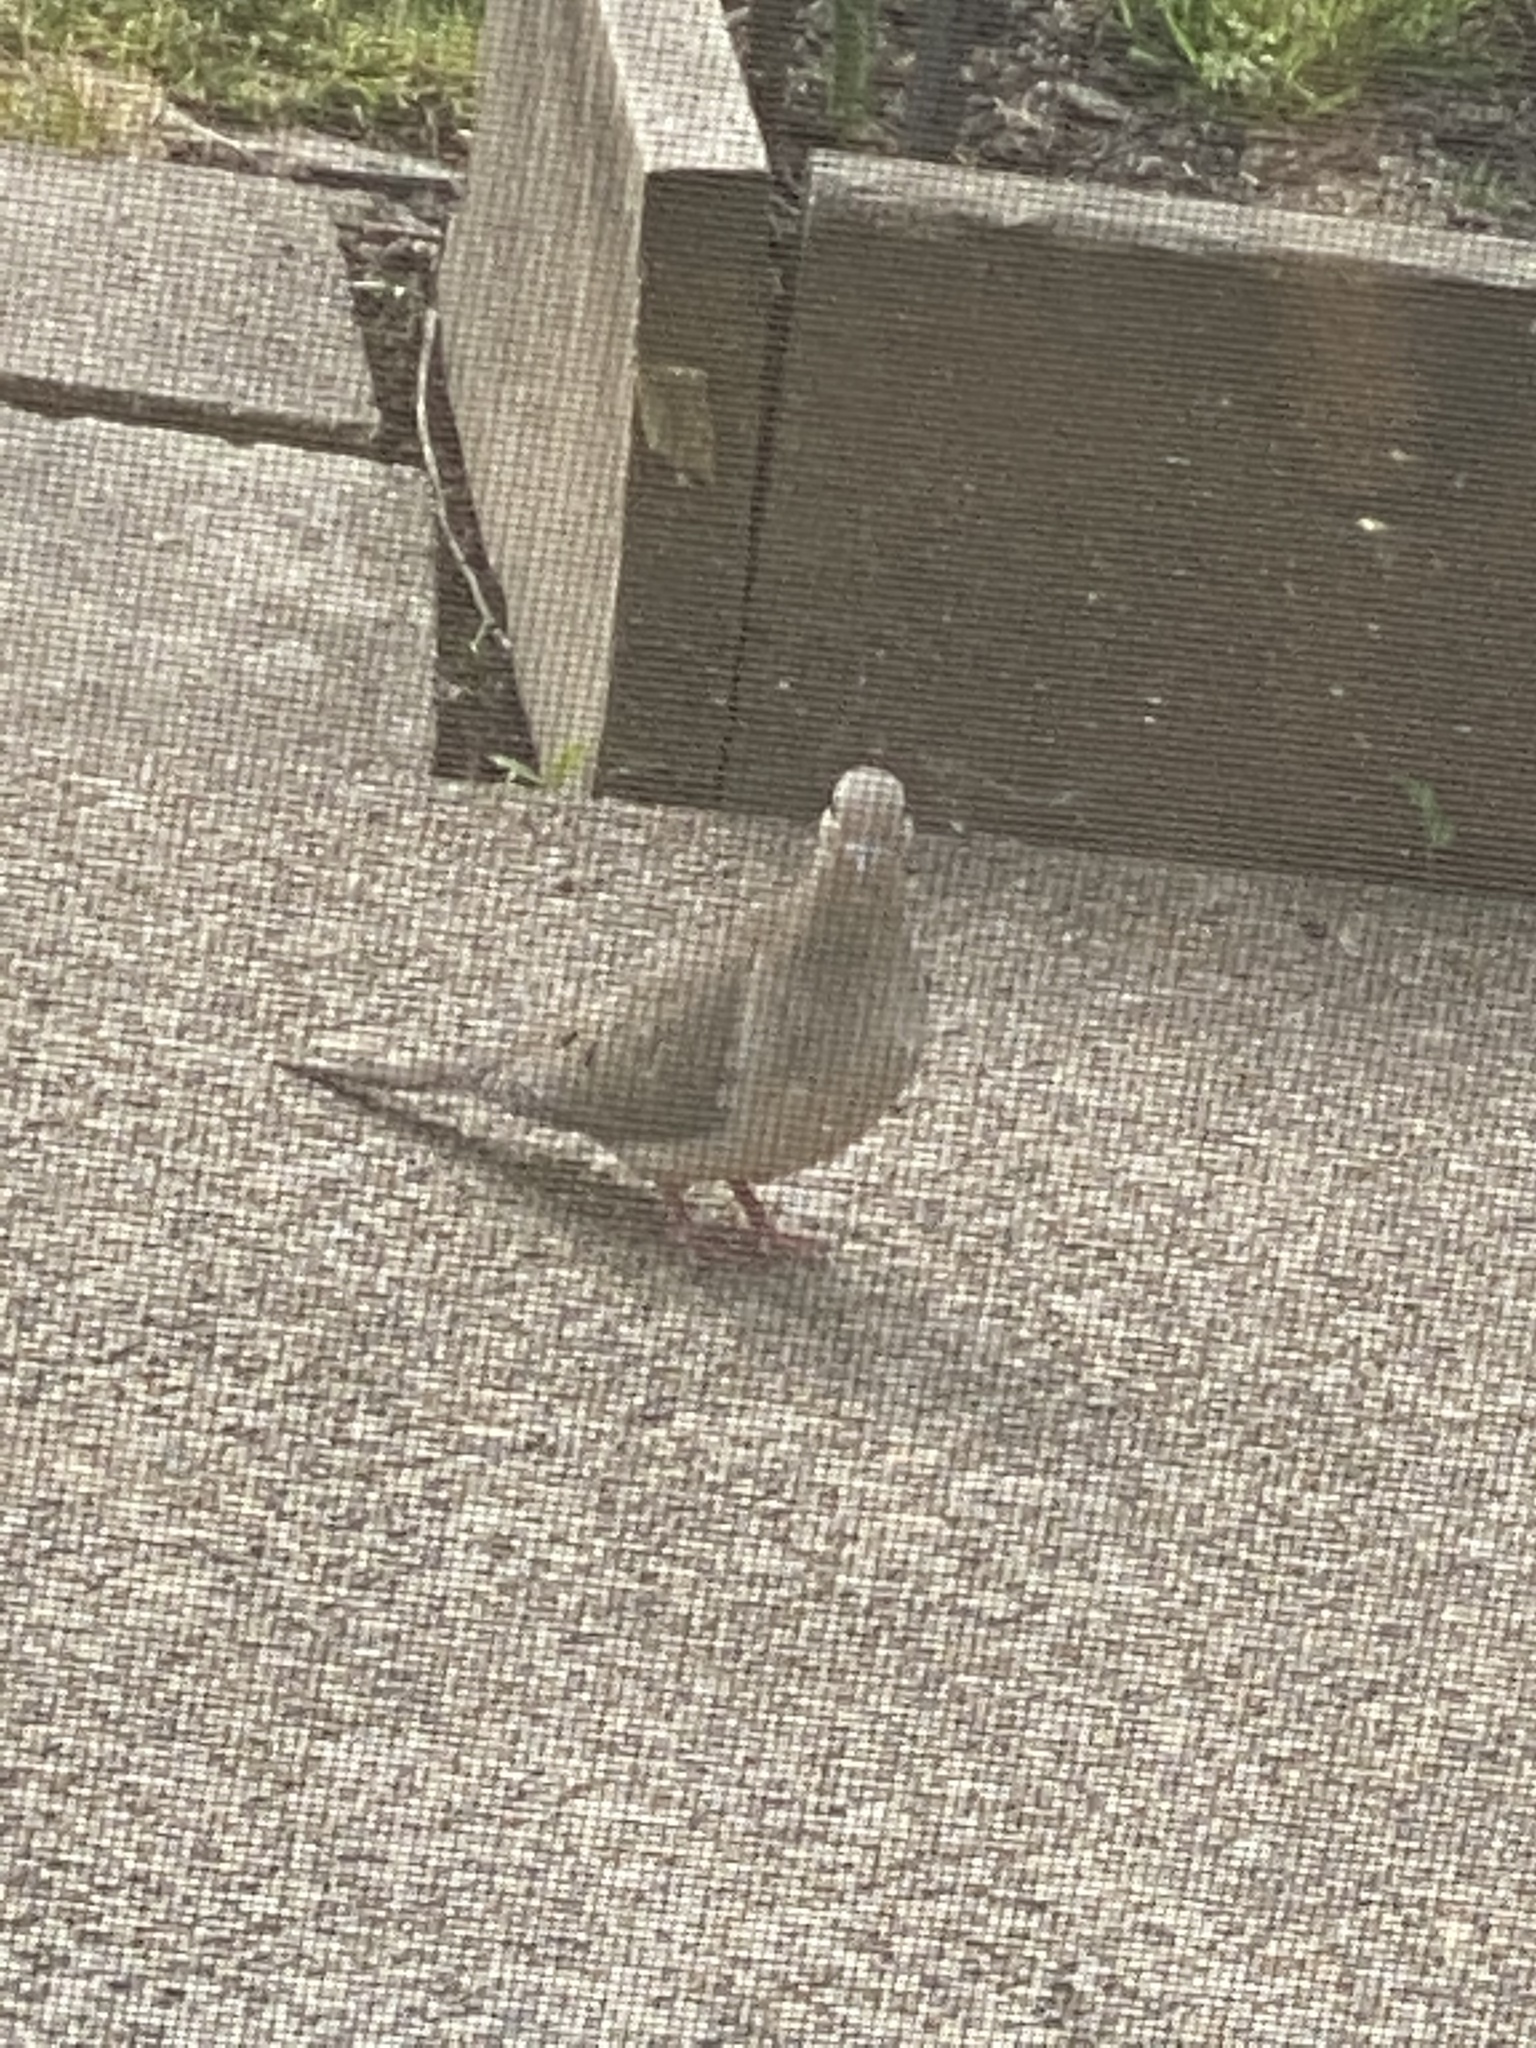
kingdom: Animalia
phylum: Chordata
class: Aves
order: Columbiformes
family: Columbidae
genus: Zenaida
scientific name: Zenaida macroura
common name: Mourning dove
